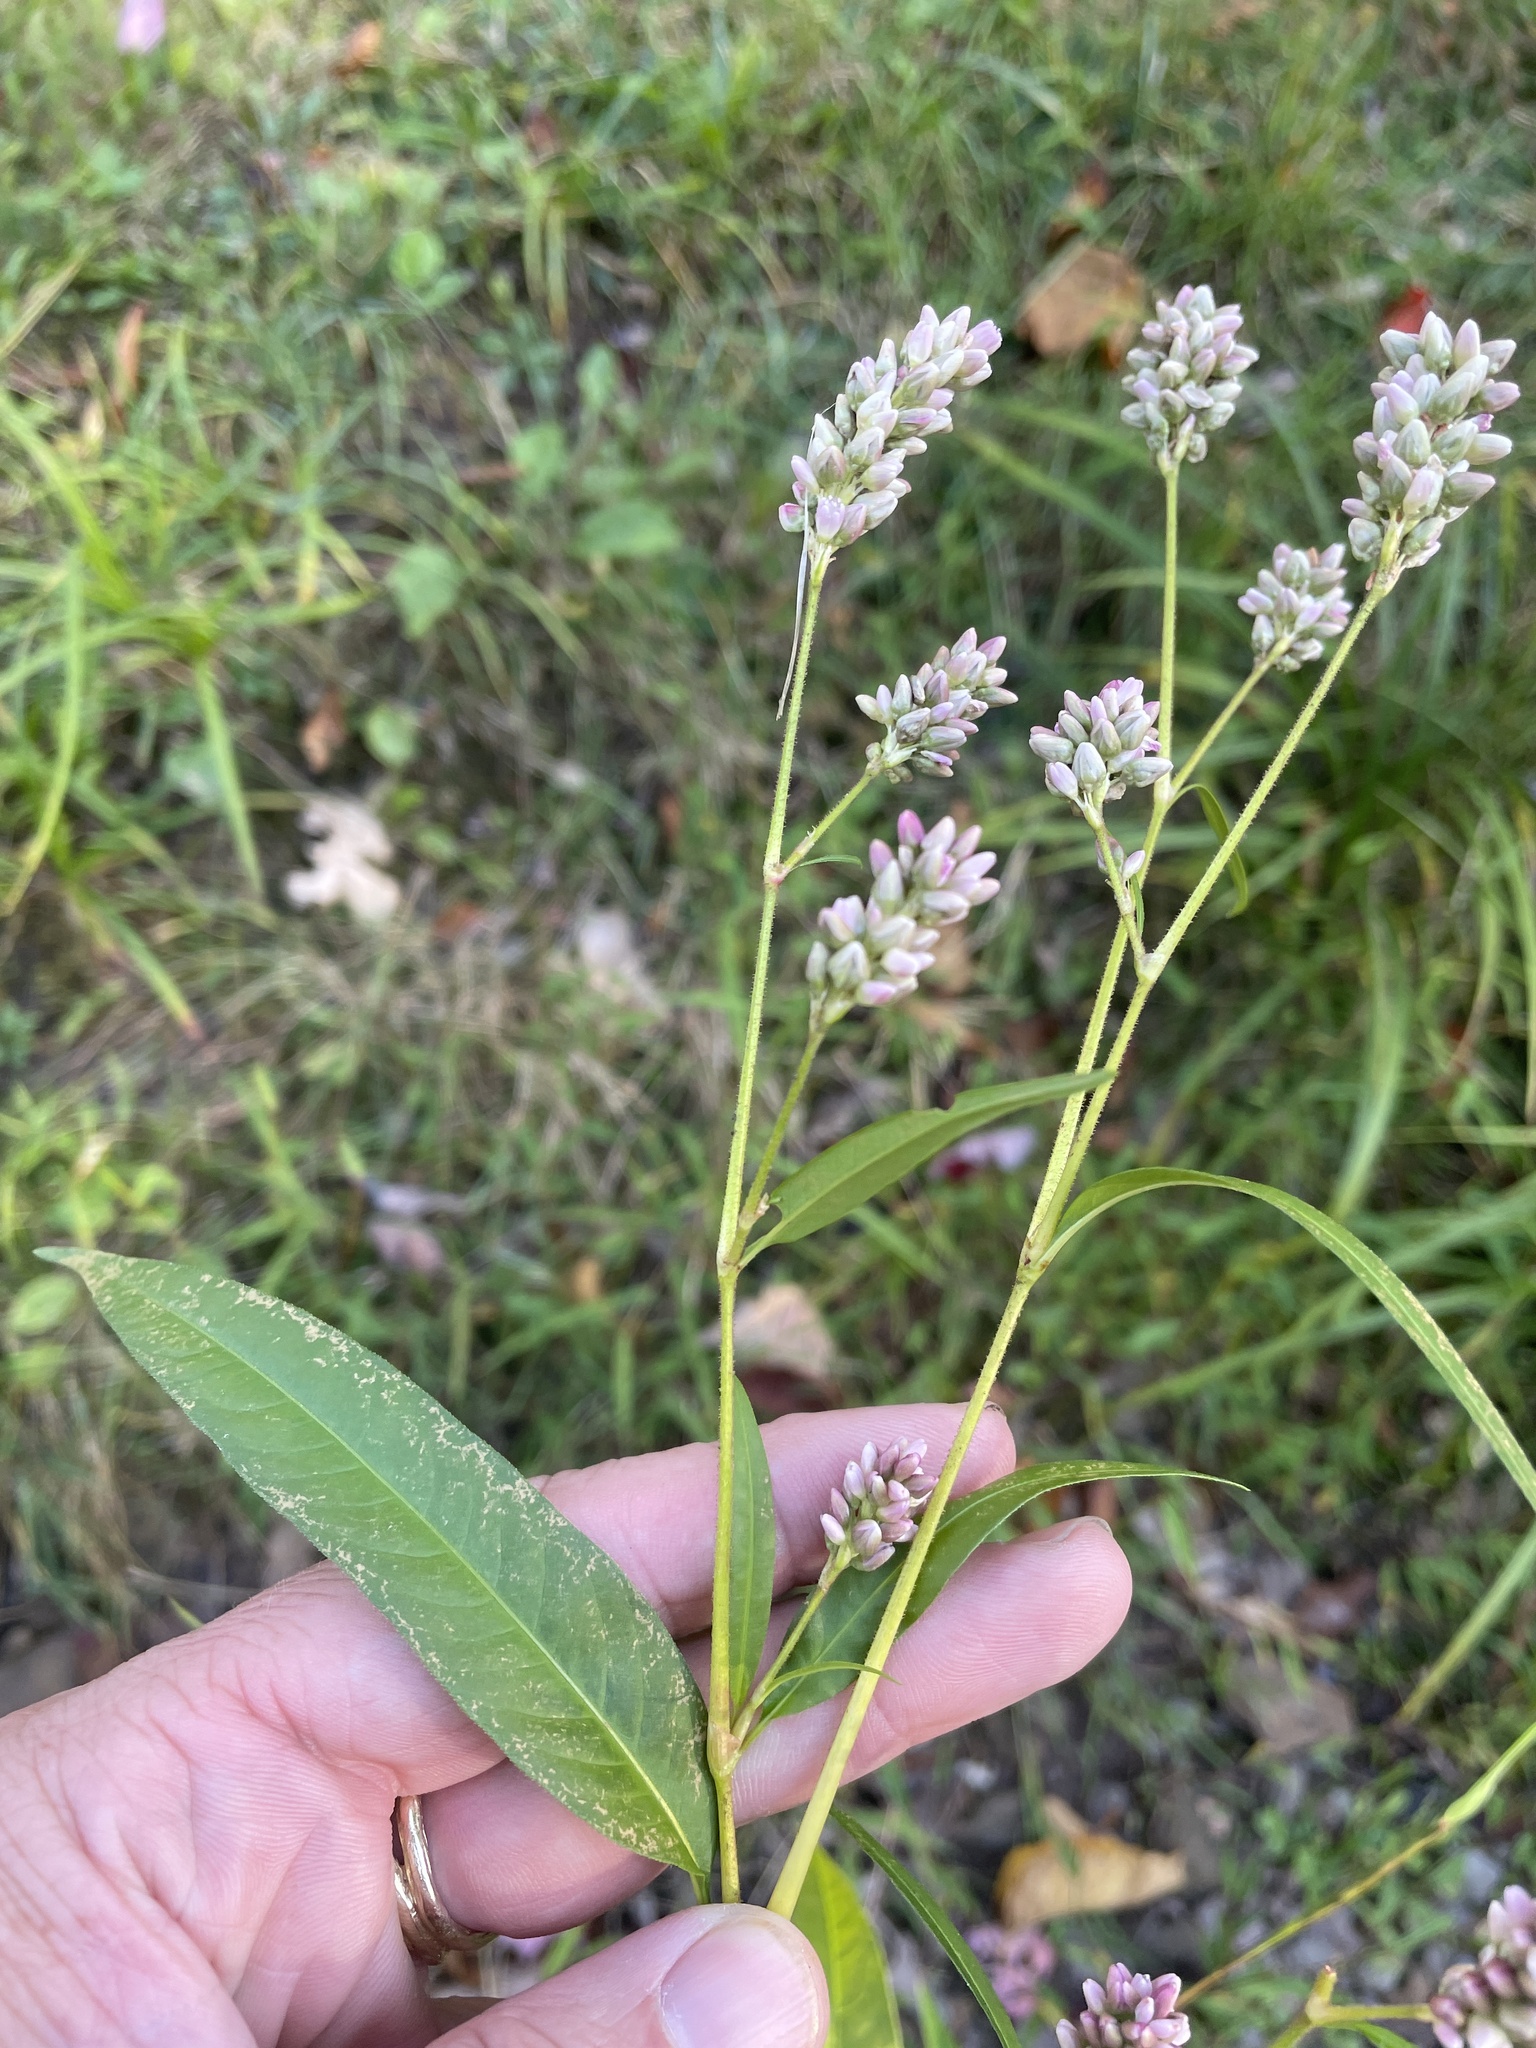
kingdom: Plantae
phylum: Tracheophyta
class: Magnoliopsida
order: Caryophyllales
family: Polygonaceae
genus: Persicaria
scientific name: Persicaria pensylvanica
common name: Pinkweed
